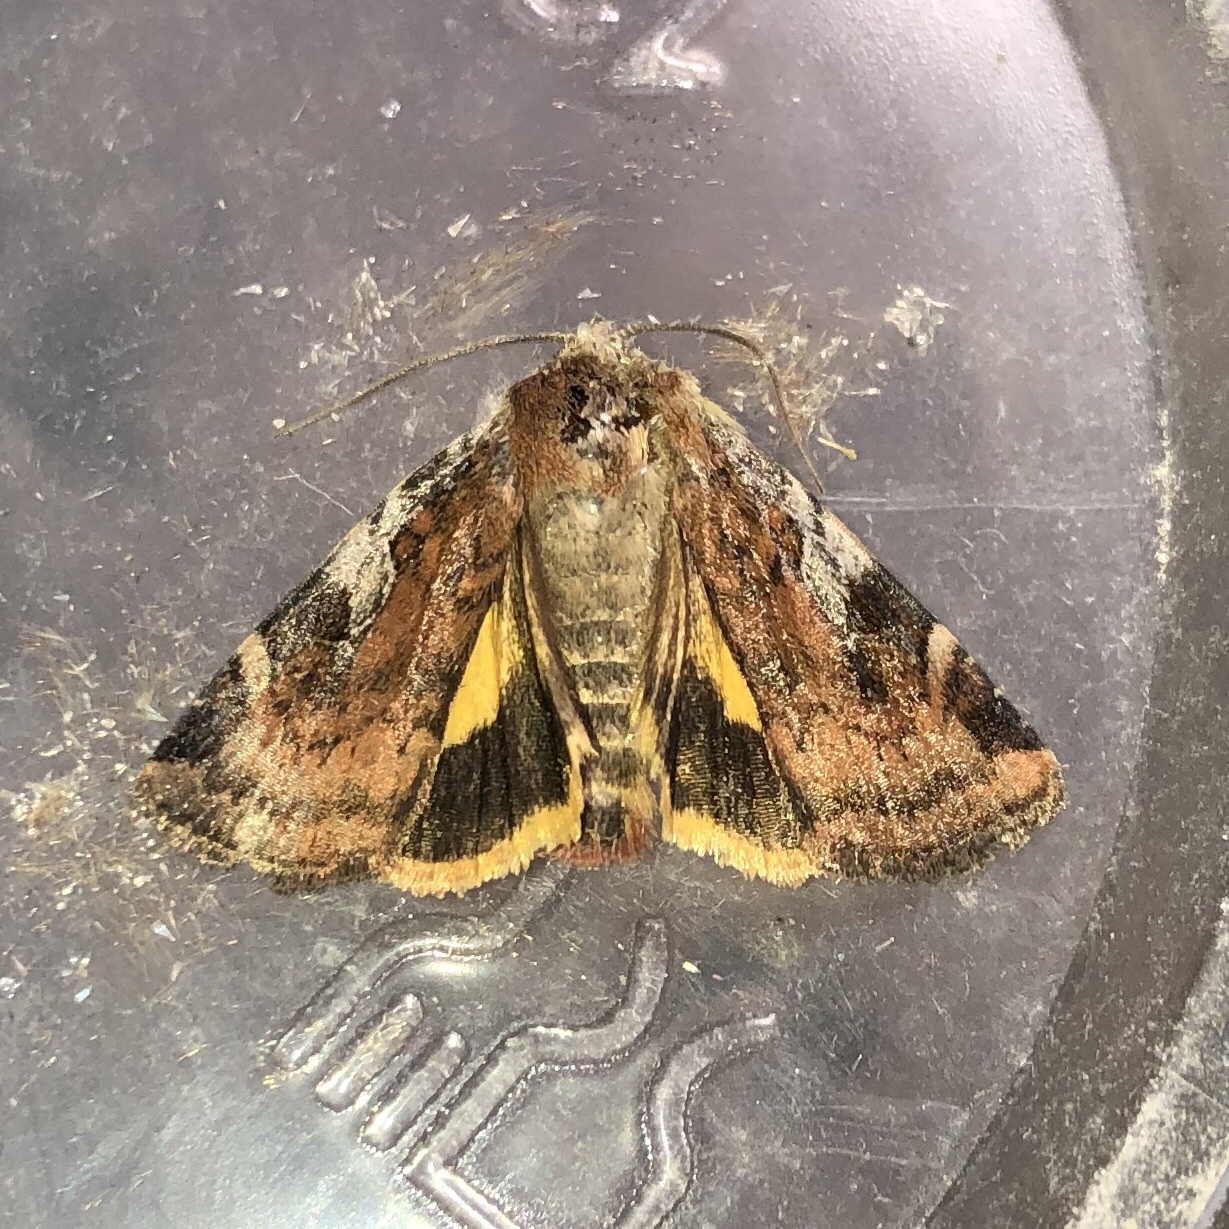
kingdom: Animalia
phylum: Arthropoda
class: Insecta
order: Lepidoptera
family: Noctuidae
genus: Cryptocala
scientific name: Cryptocala acadiensis
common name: Catocaline dart
